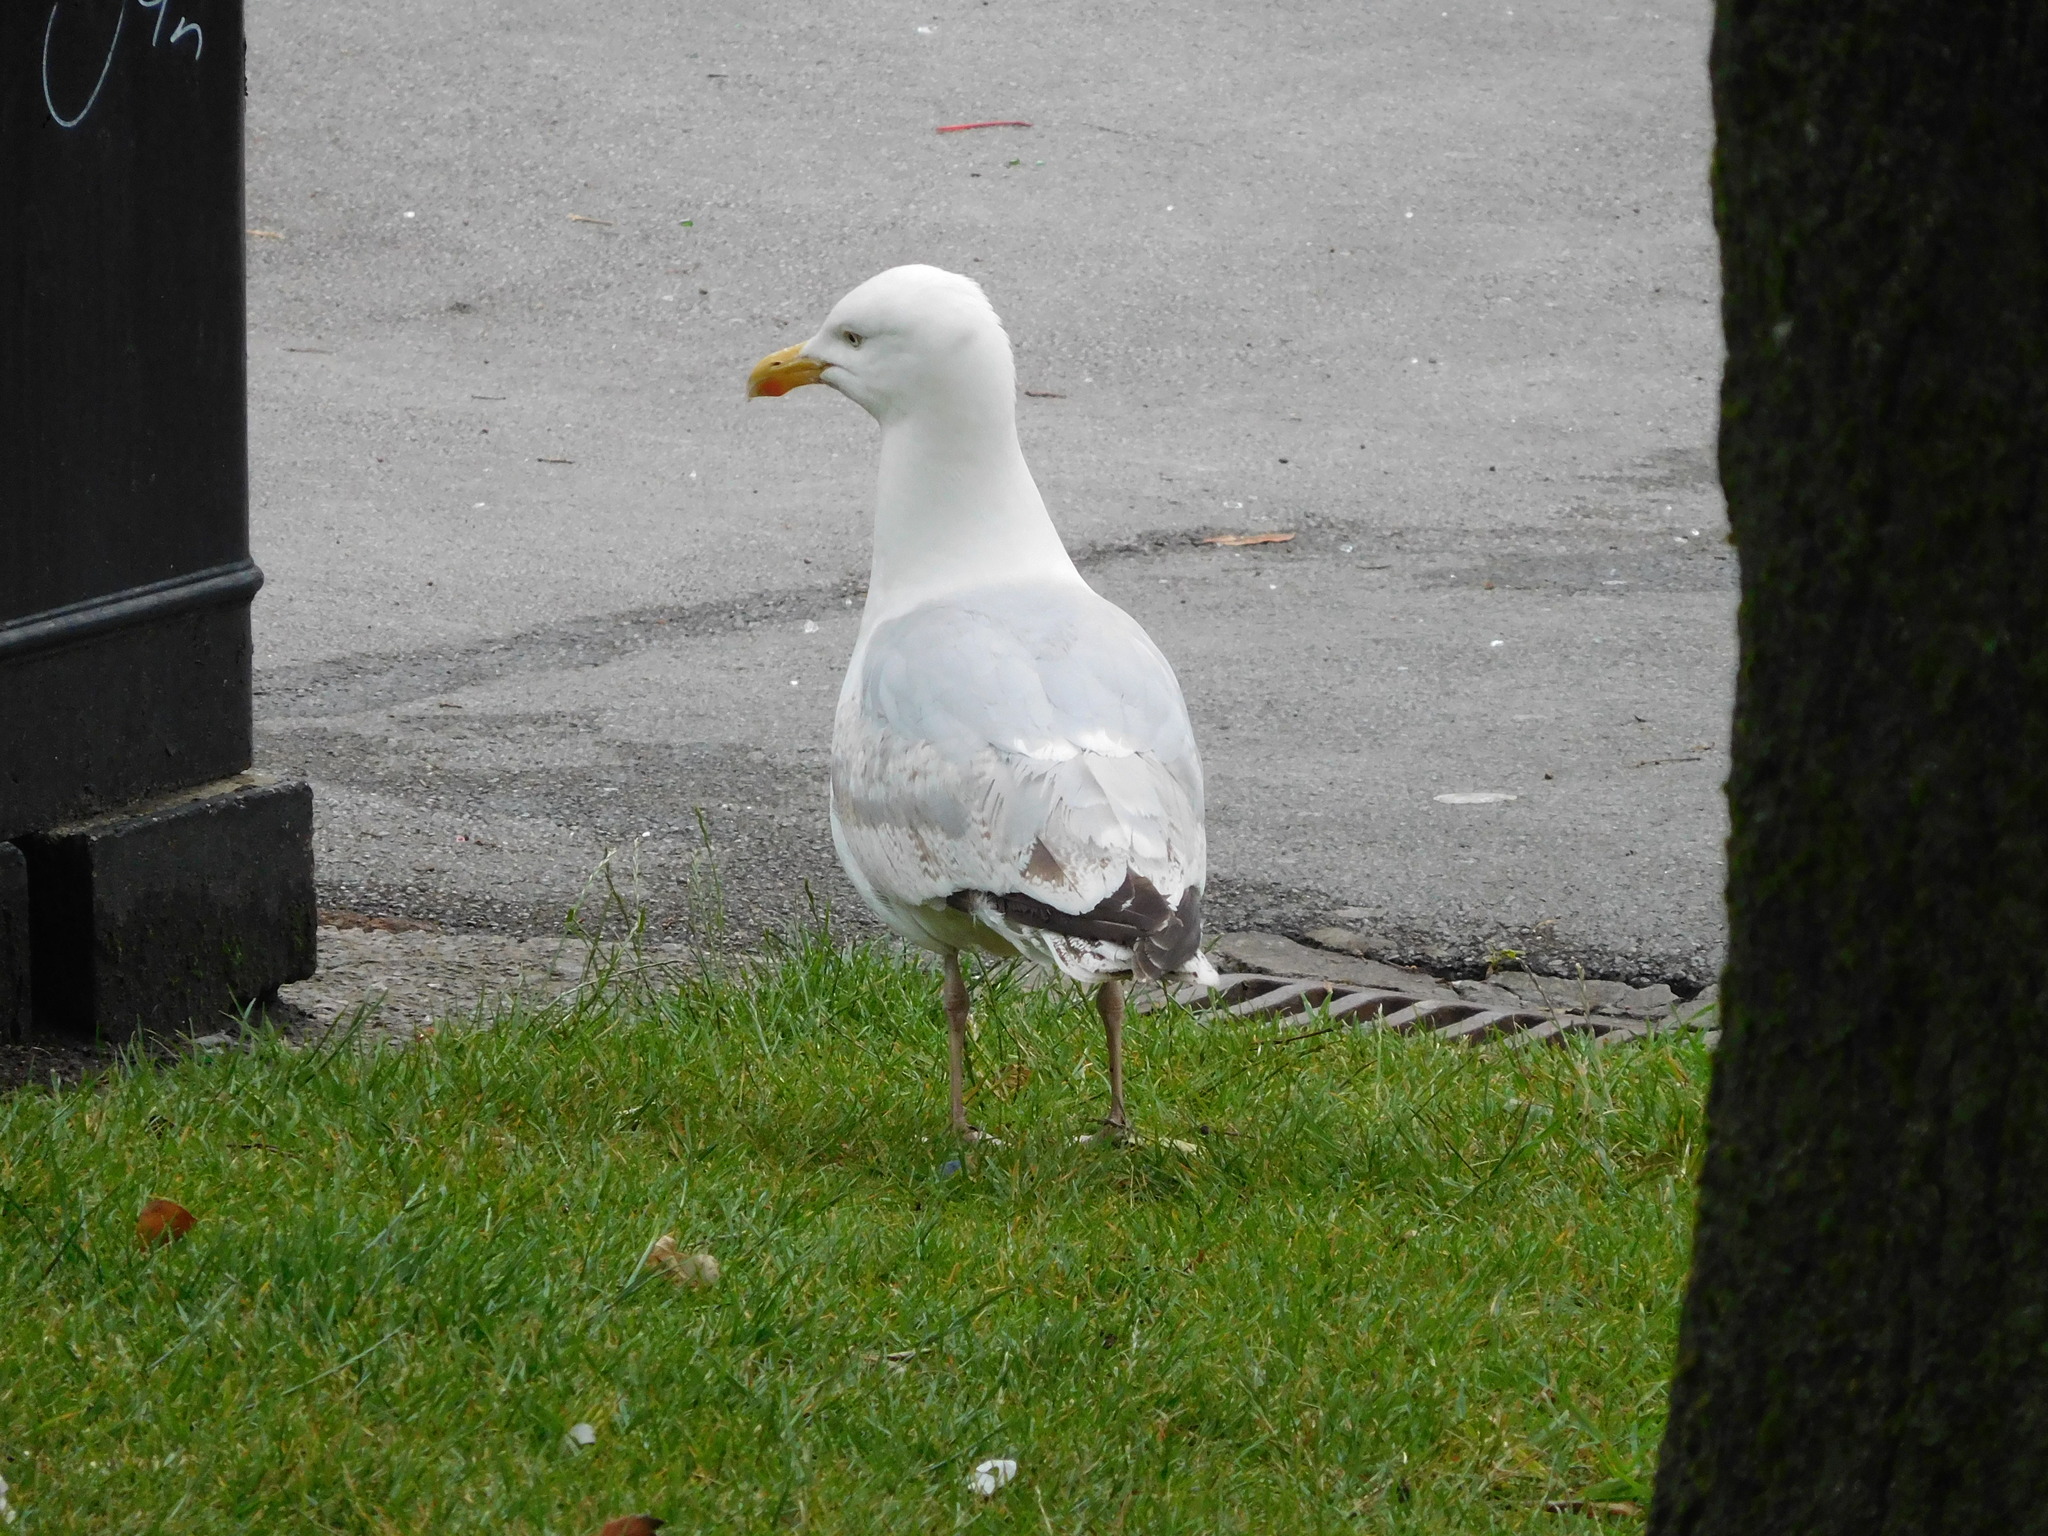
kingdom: Animalia
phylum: Chordata
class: Aves
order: Charadriiformes
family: Laridae
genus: Larus
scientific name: Larus argentatus
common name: Herring gull
